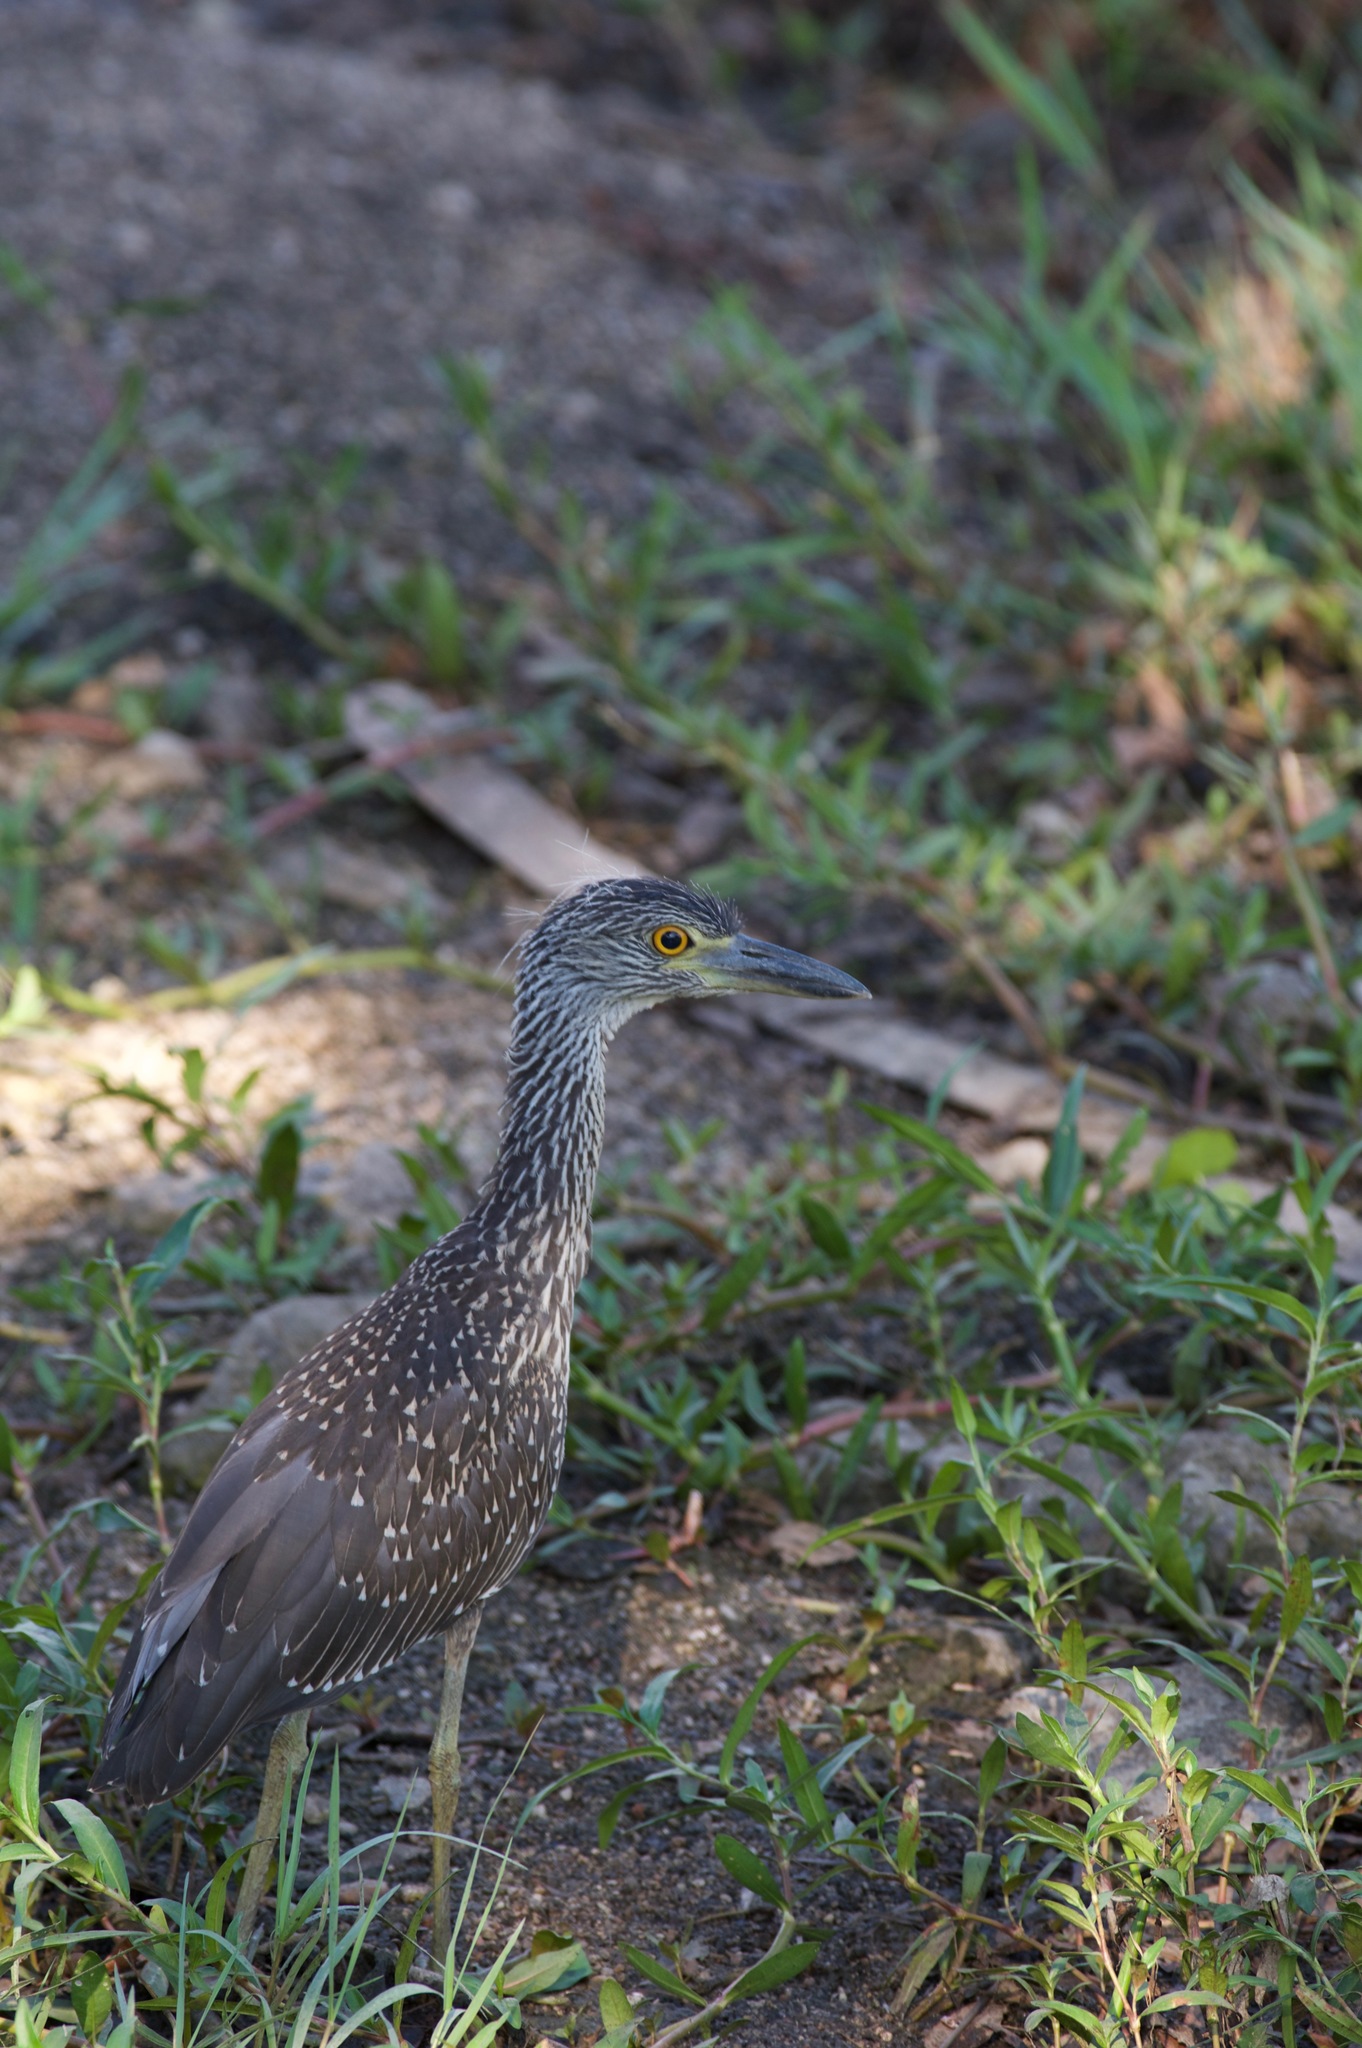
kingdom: Animalia
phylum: Chordata
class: Aves
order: Pelecaniformes
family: Ardeidae
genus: Nyctanassa
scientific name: Nyctanassa violacea
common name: Yellow-crowned night heron
